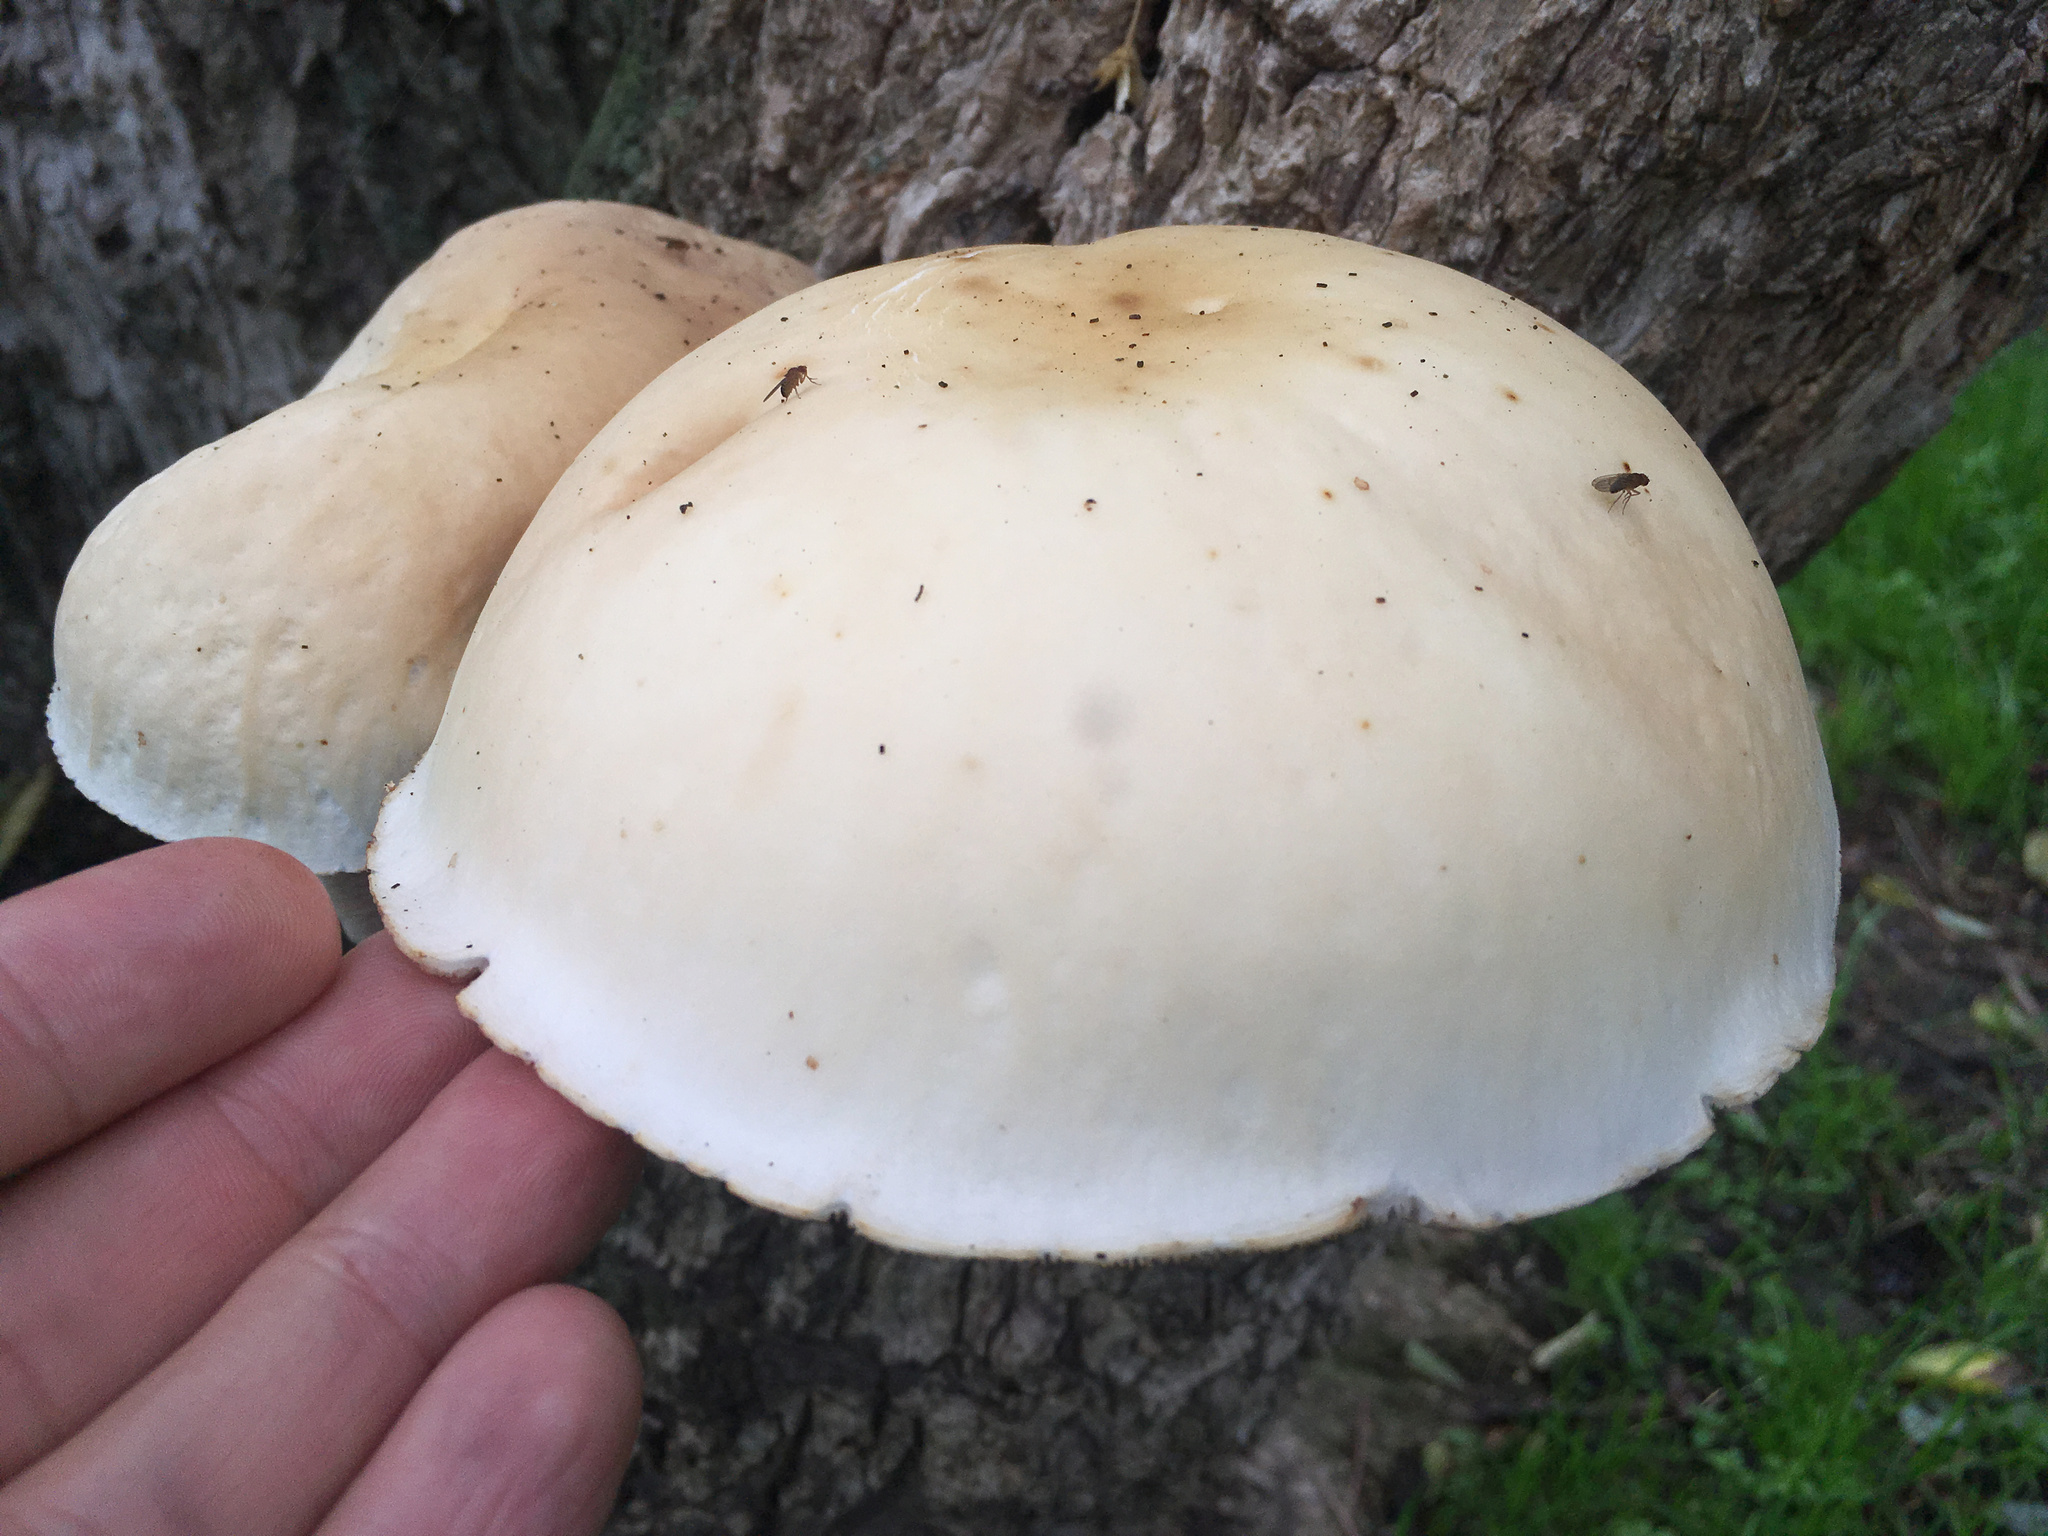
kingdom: Fungi
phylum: Basidiomycota
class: Agaricomycetes
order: Agaricales
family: Tubariaceae
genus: Cyclocybe
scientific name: Cyclocybe parasitica
